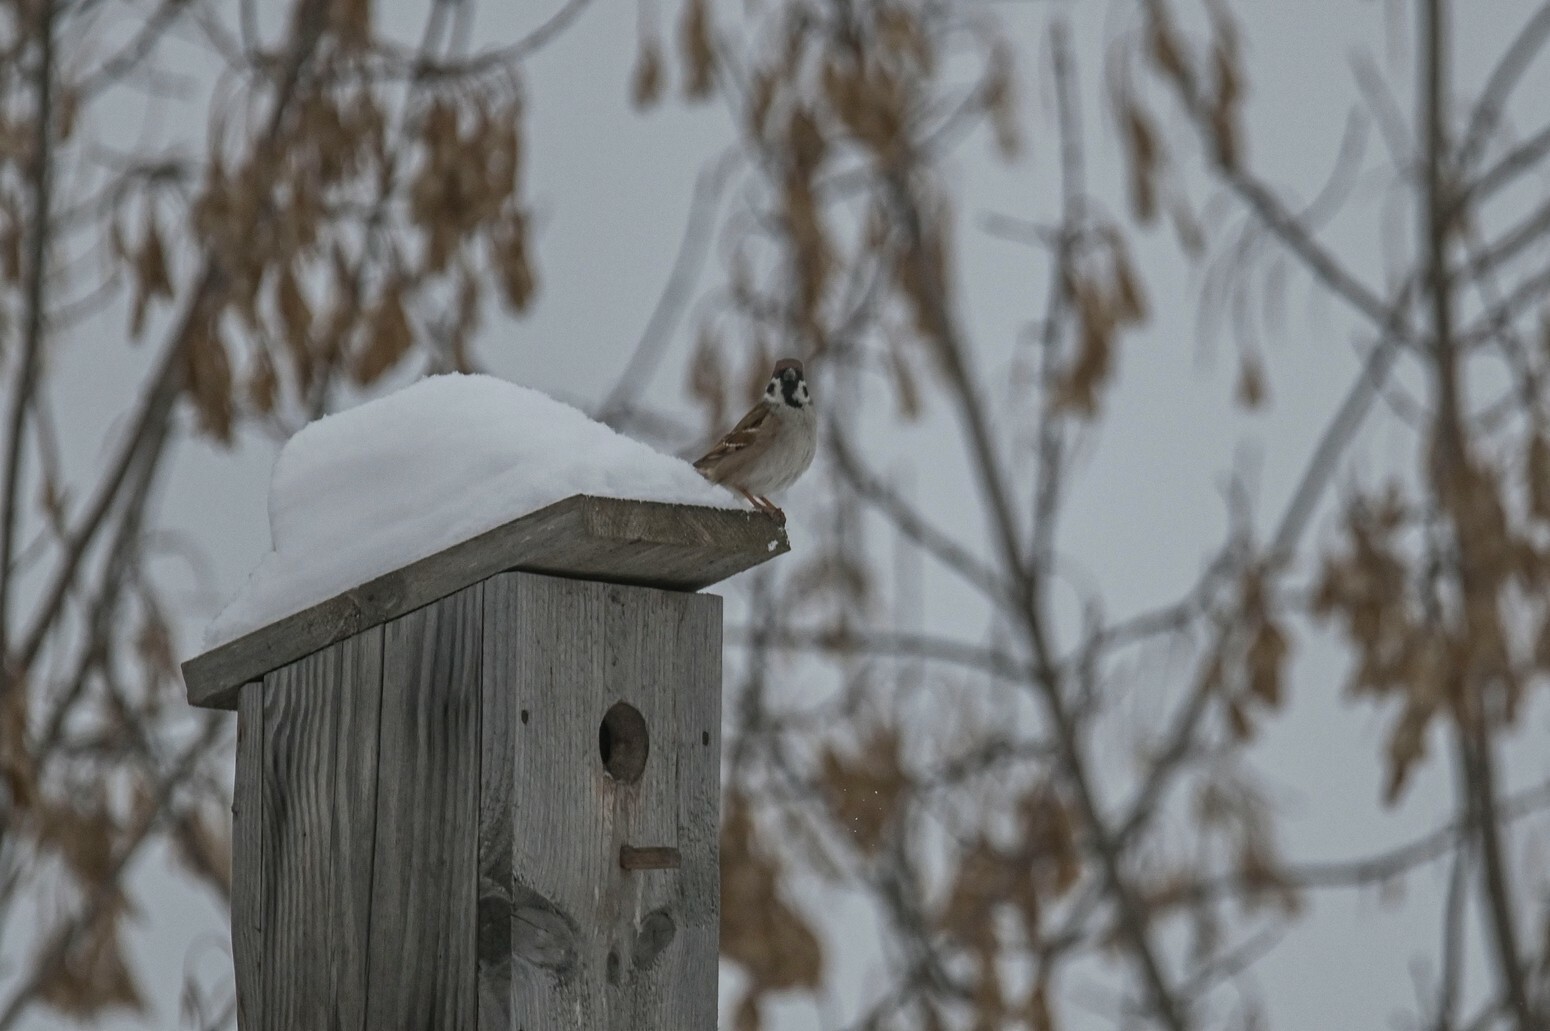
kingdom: Animalia
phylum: Chordata
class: Aves
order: Passeriformes
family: Passeridae
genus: Passer
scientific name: Passer montanus
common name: Eurasian tree sparrow
